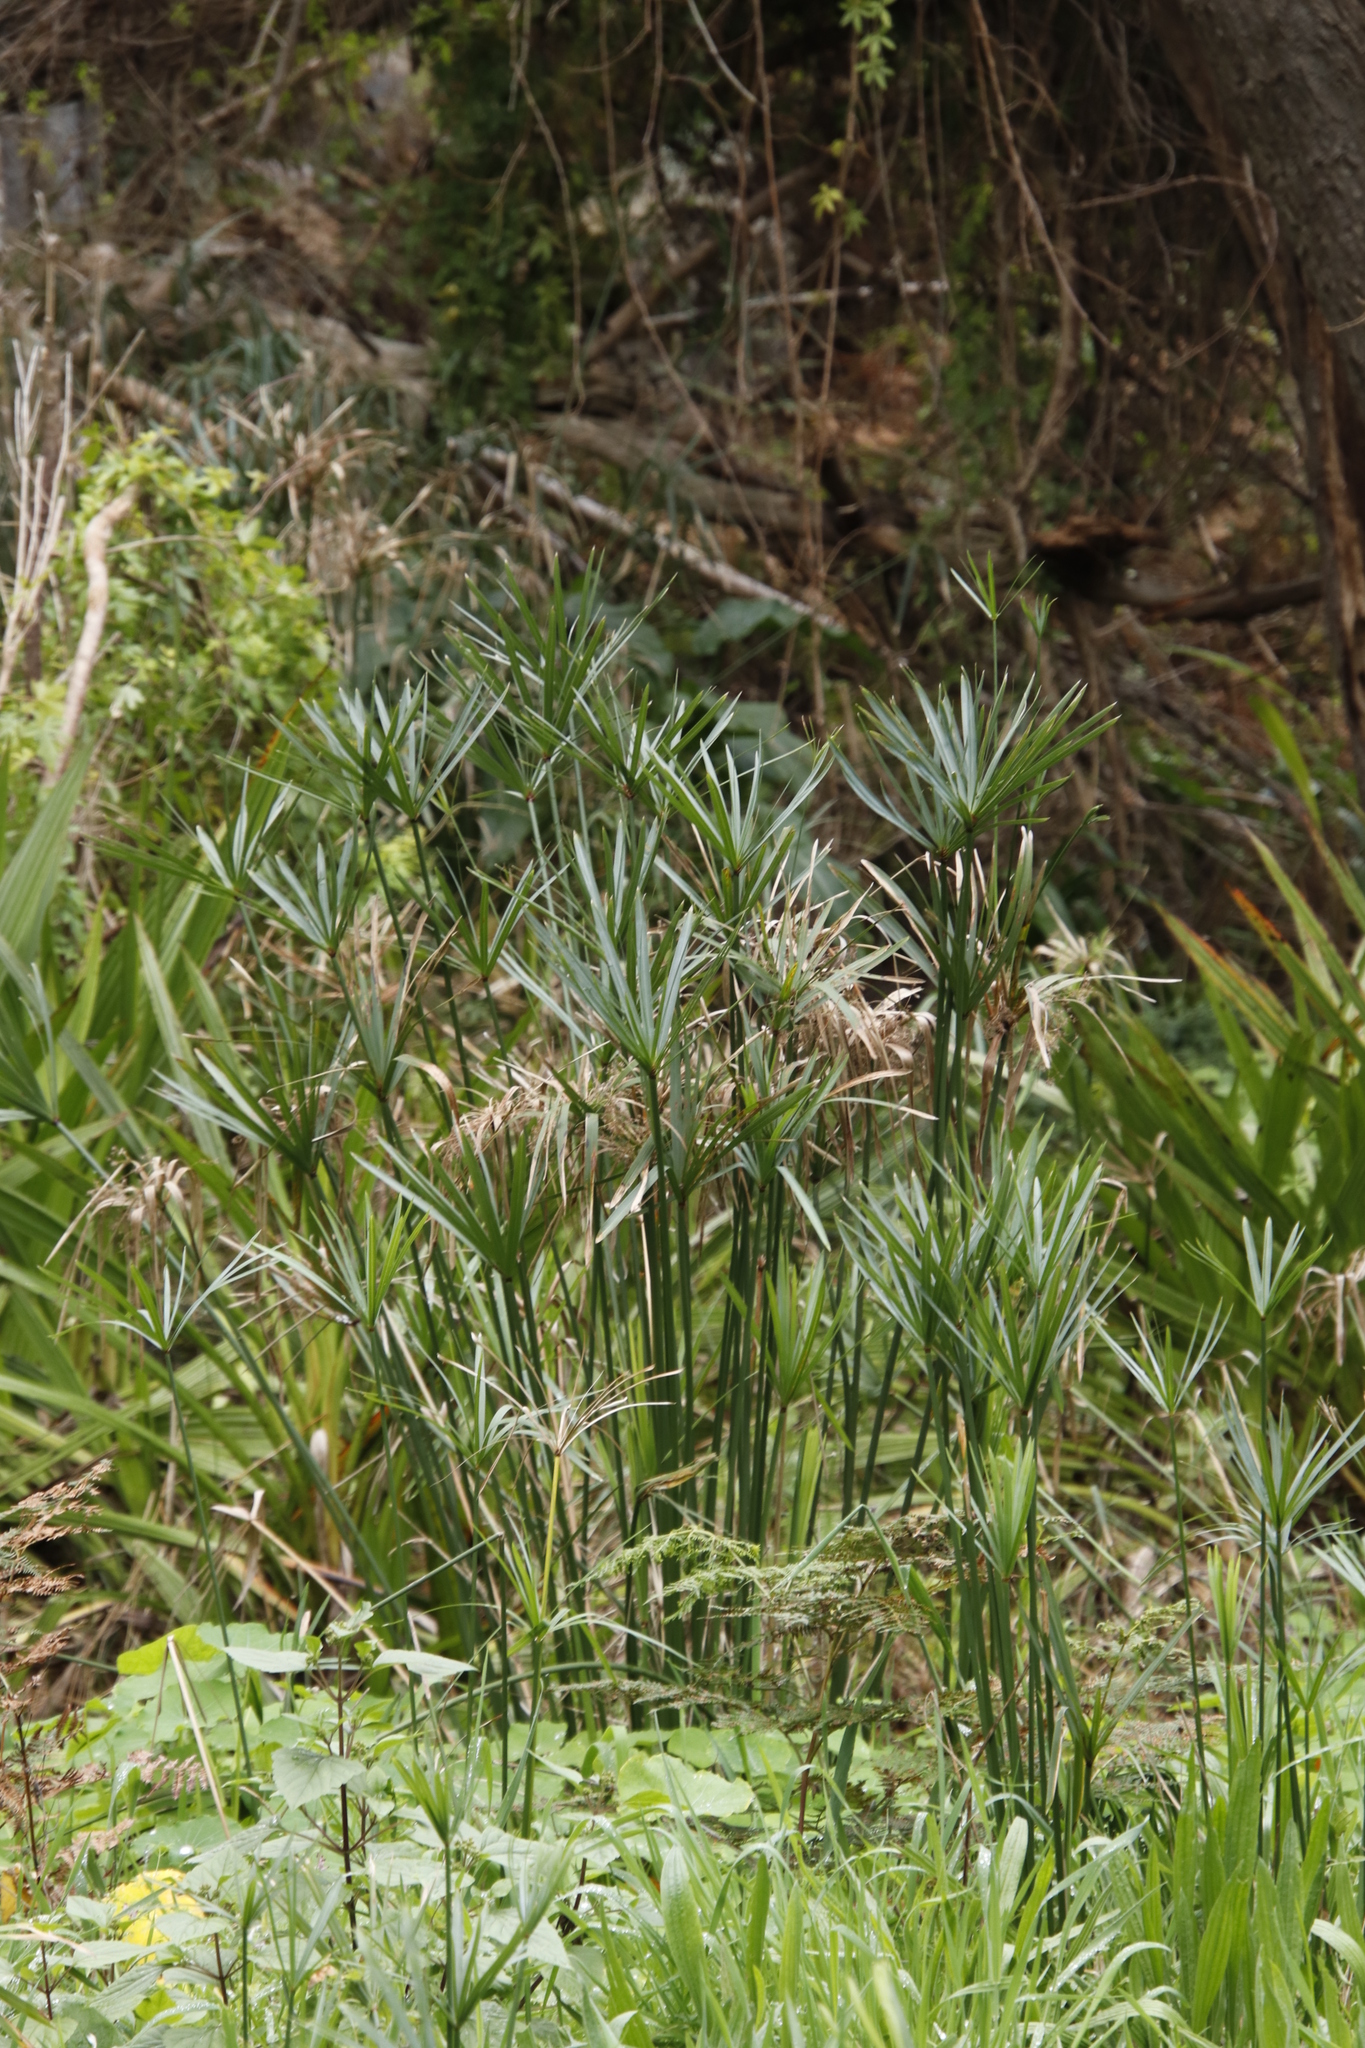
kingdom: Plantae
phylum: Tracheophyta
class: Liliopsida
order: Poales
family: Cyperaceae
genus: Cyperus
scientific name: Cyperus textilis
